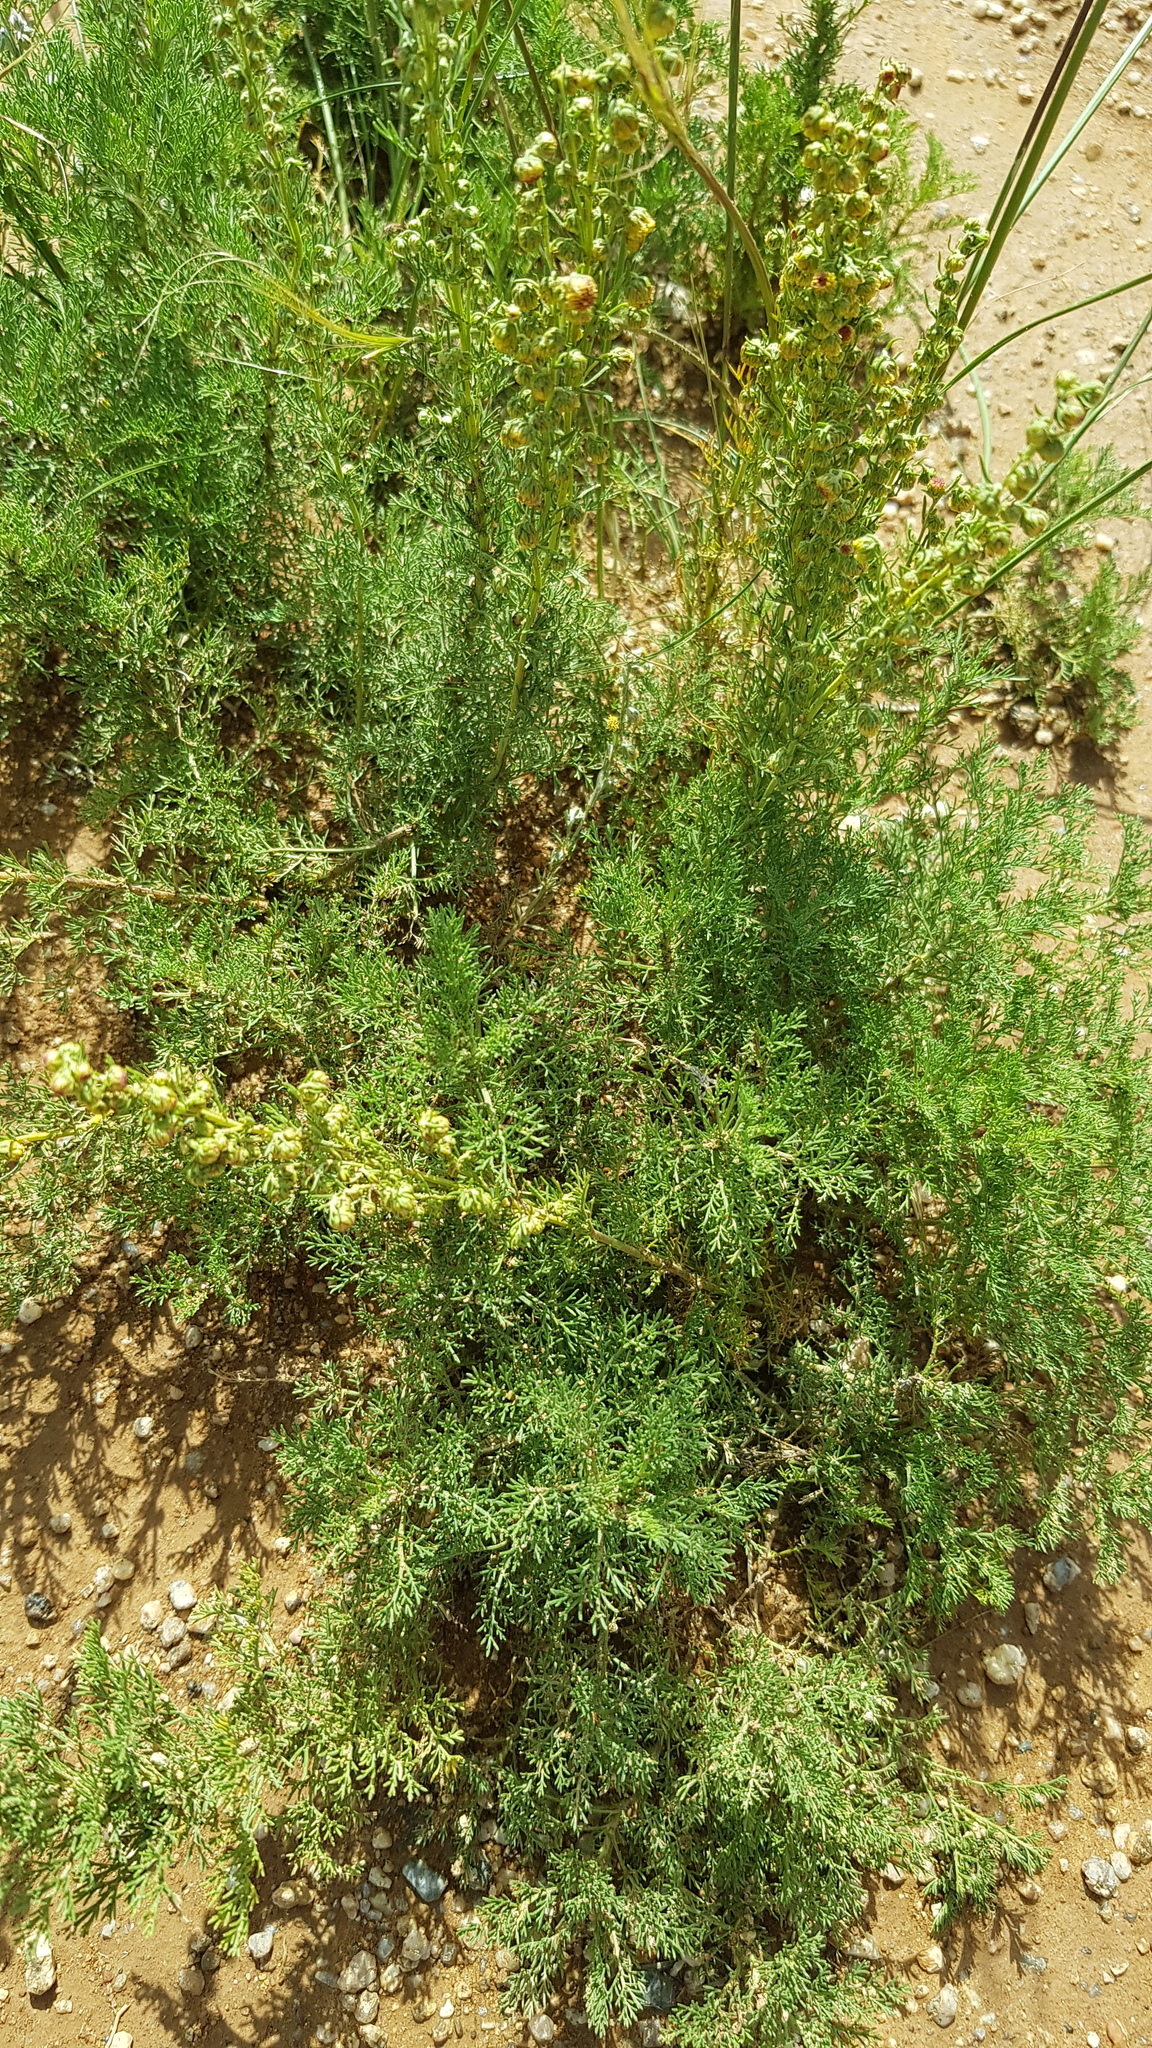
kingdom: Plantae
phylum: Tracheophyta
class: Magnoliopsida
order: Asterales
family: Asteraceae
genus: Artemisia
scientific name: Artemisia adamsii
